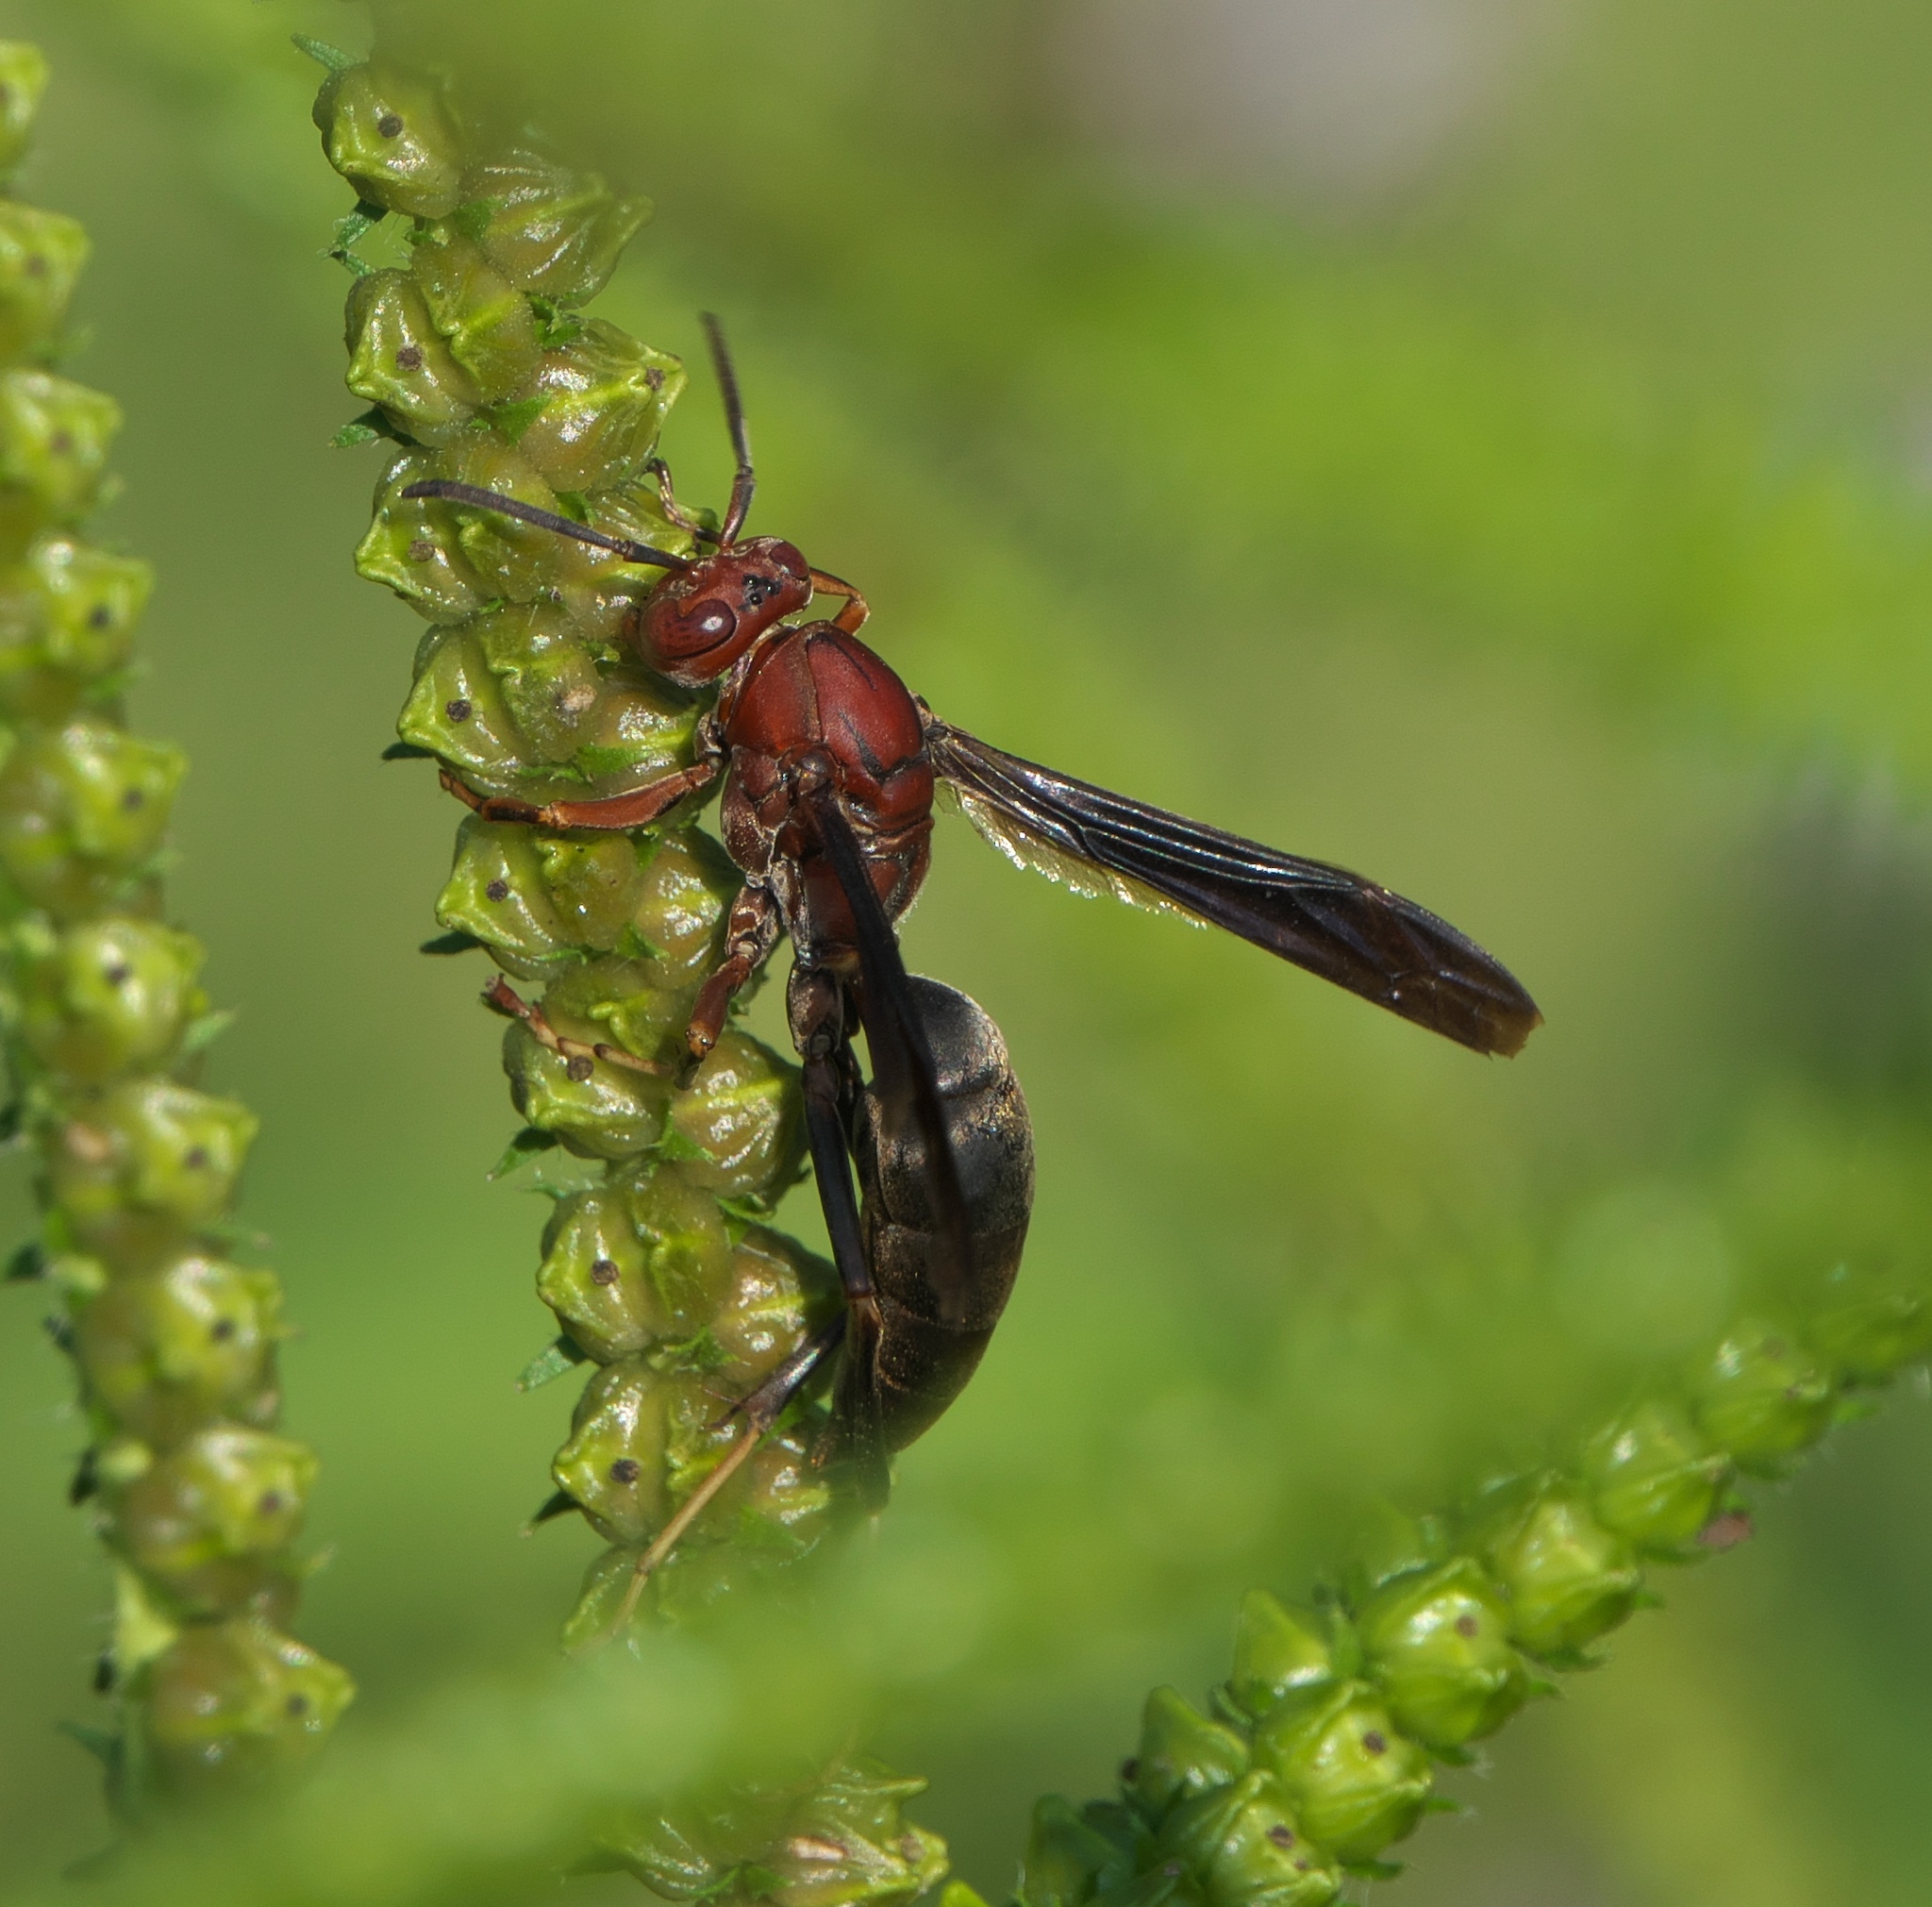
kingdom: Animalia
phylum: Arthropoda
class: Insecta
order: Hymenoptera
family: Eumenidae
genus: Polistes
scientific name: Polistes metricus
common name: Metric paper wasp
